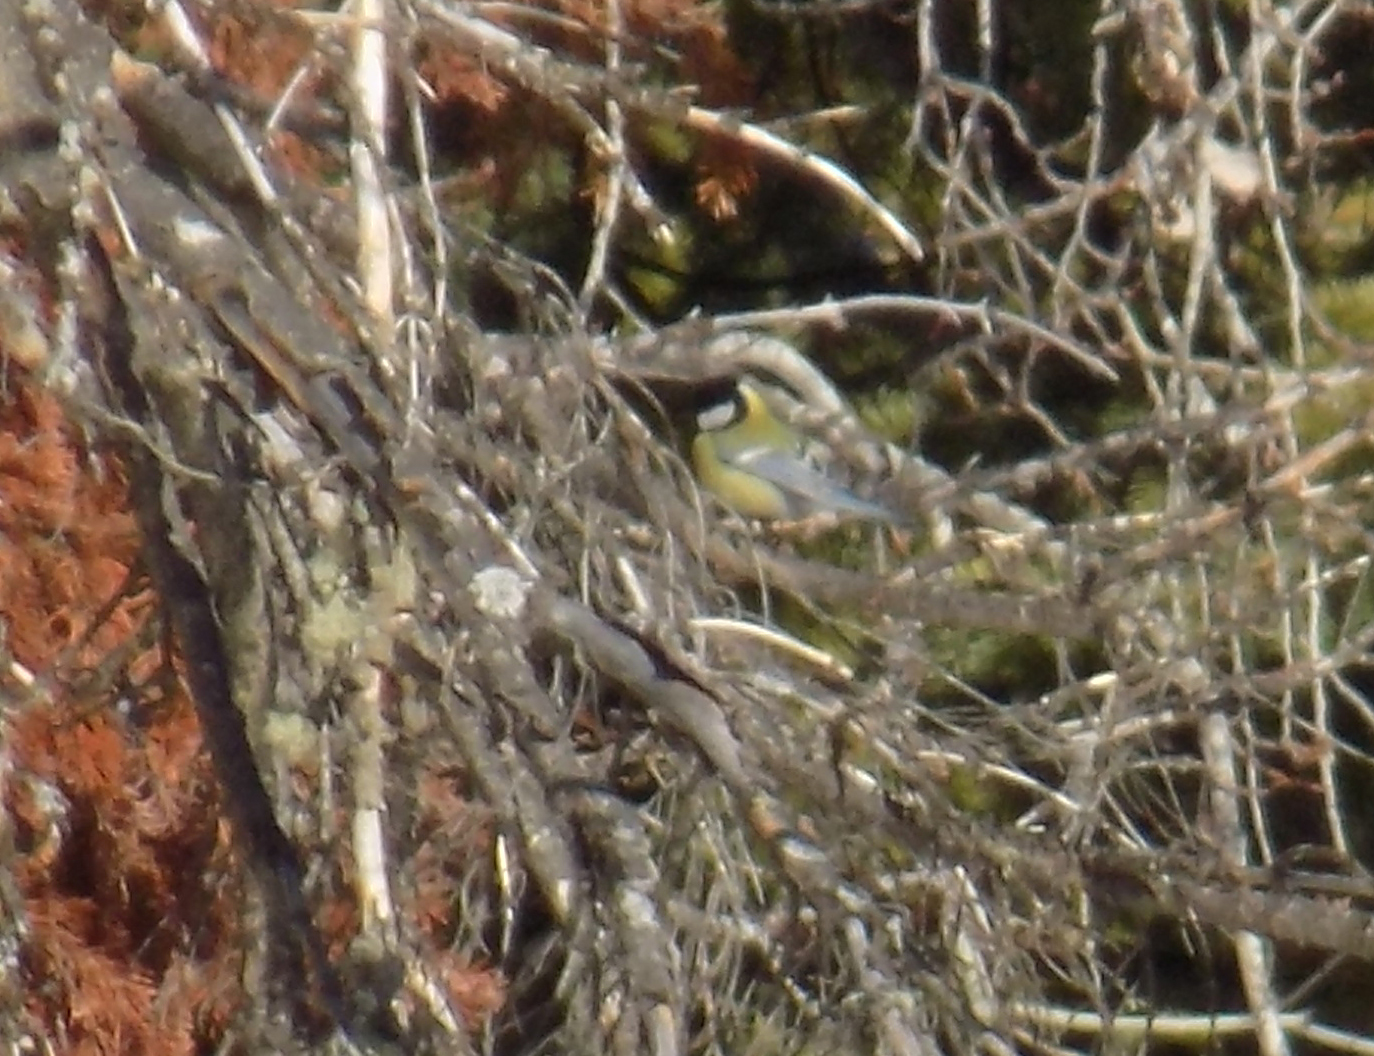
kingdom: Animalia
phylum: Chordata
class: Aves
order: Passeriformes
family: Paridae
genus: Parus
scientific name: Parus major
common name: Great tit
